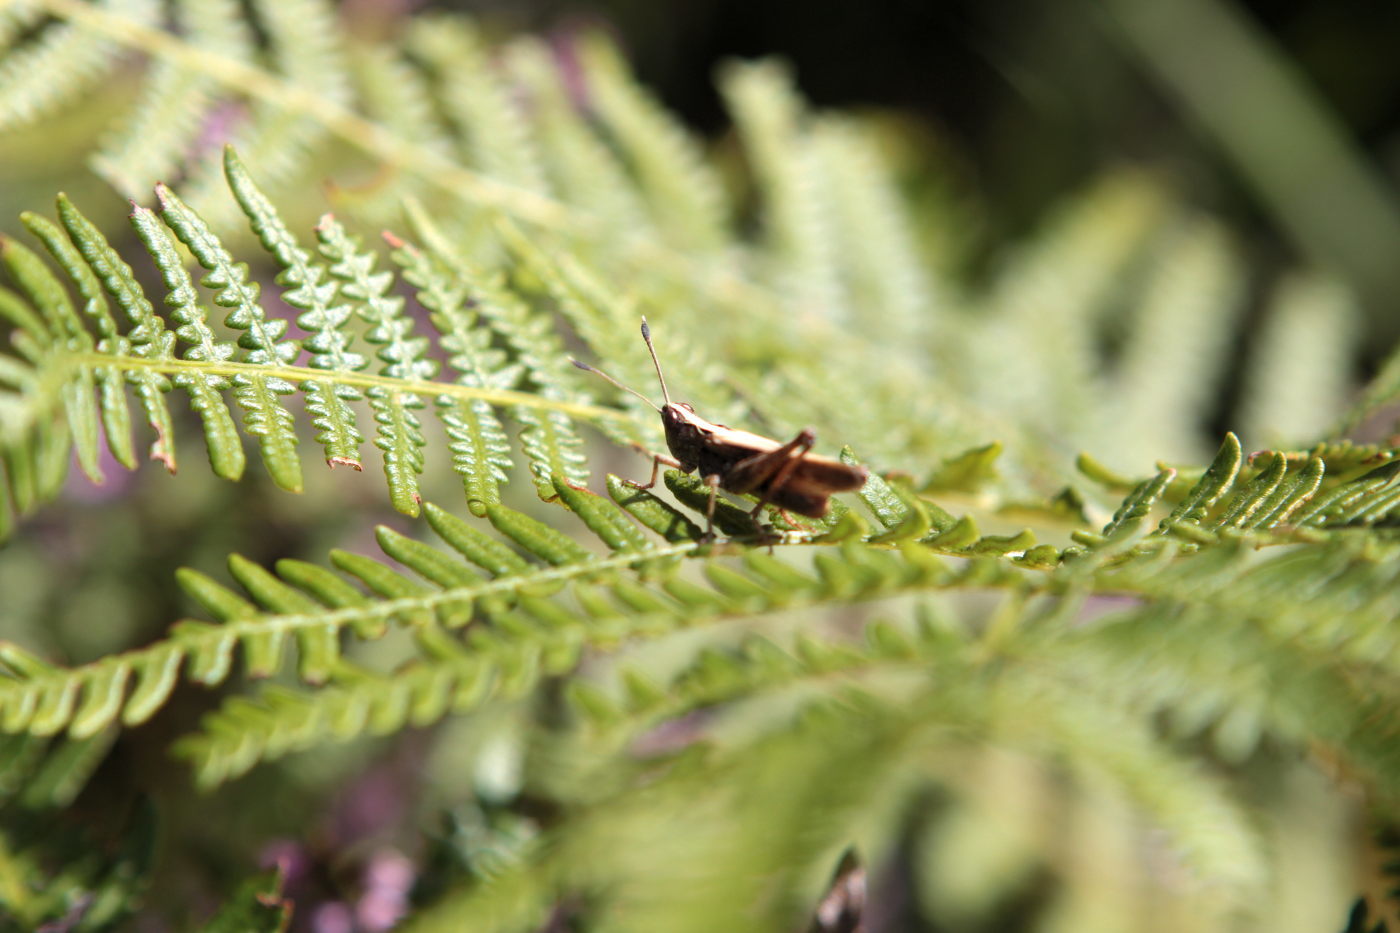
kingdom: Animalia
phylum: Arthropoda
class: Insecta
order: Orthoptera
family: Acrididae
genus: Gomphocerippus
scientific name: Gomphocerippus rufus
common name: Rufous grasshopper
